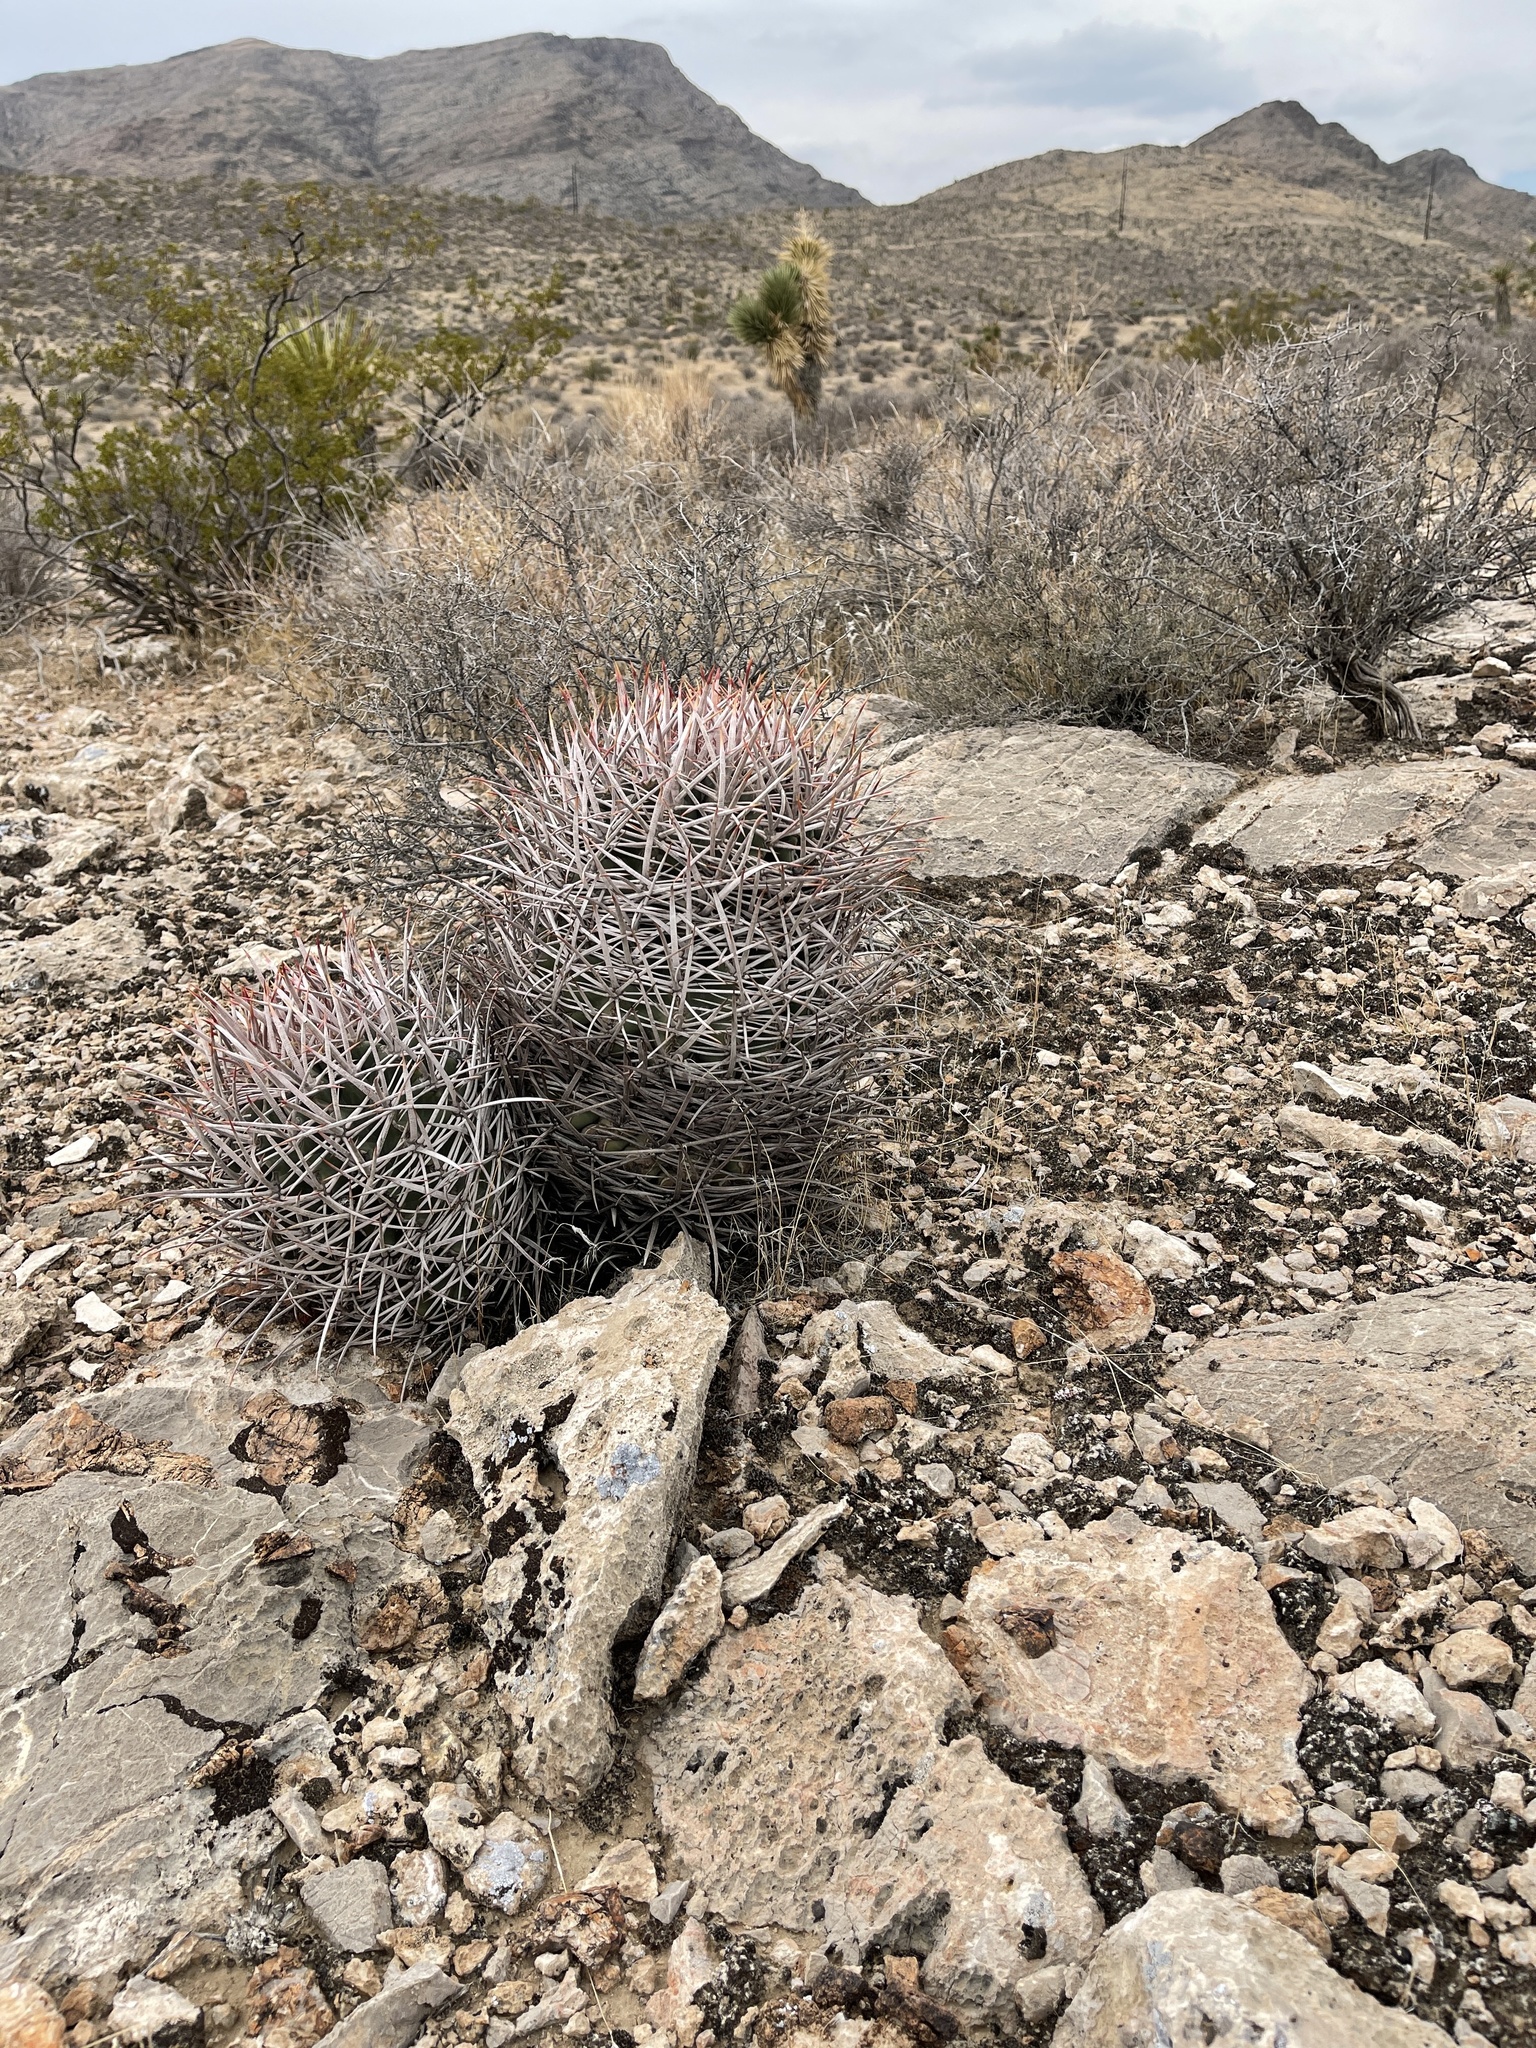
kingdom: Plantae
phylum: Tracheophyta
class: Magnoliopsida
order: Caryophyllales
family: Cactaceae
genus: Echinocactus
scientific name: Echinocactus polycephalus
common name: Cottontop cactus
